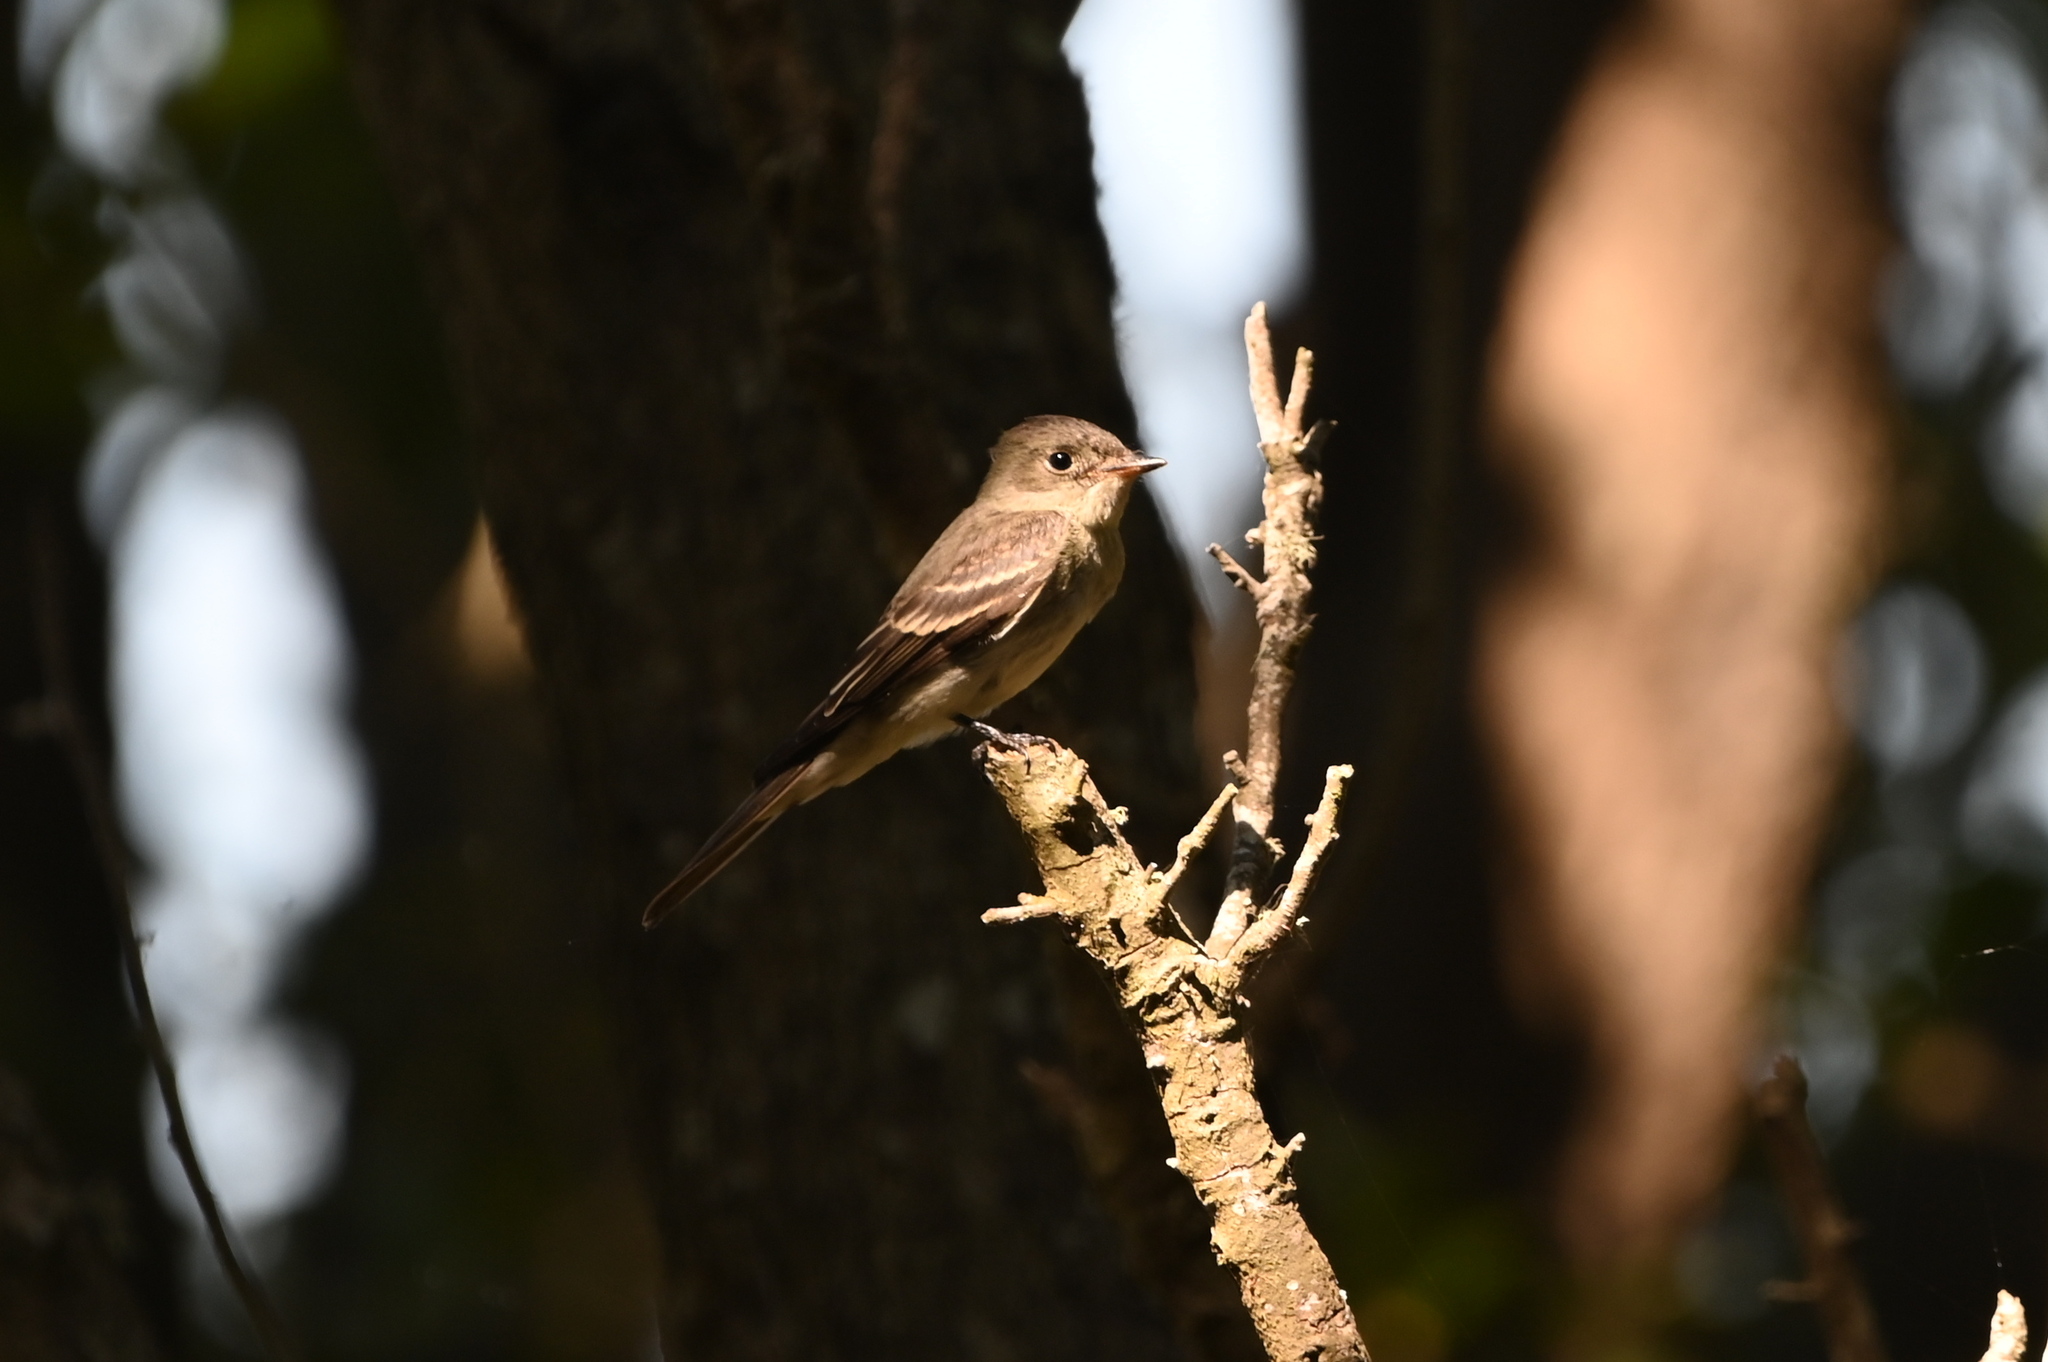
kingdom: Animalia
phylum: Chordata
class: Aves
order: Passeriformes
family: Tyrannidae
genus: Contopus
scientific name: Contopus virens
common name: Eastern wood-pewee
